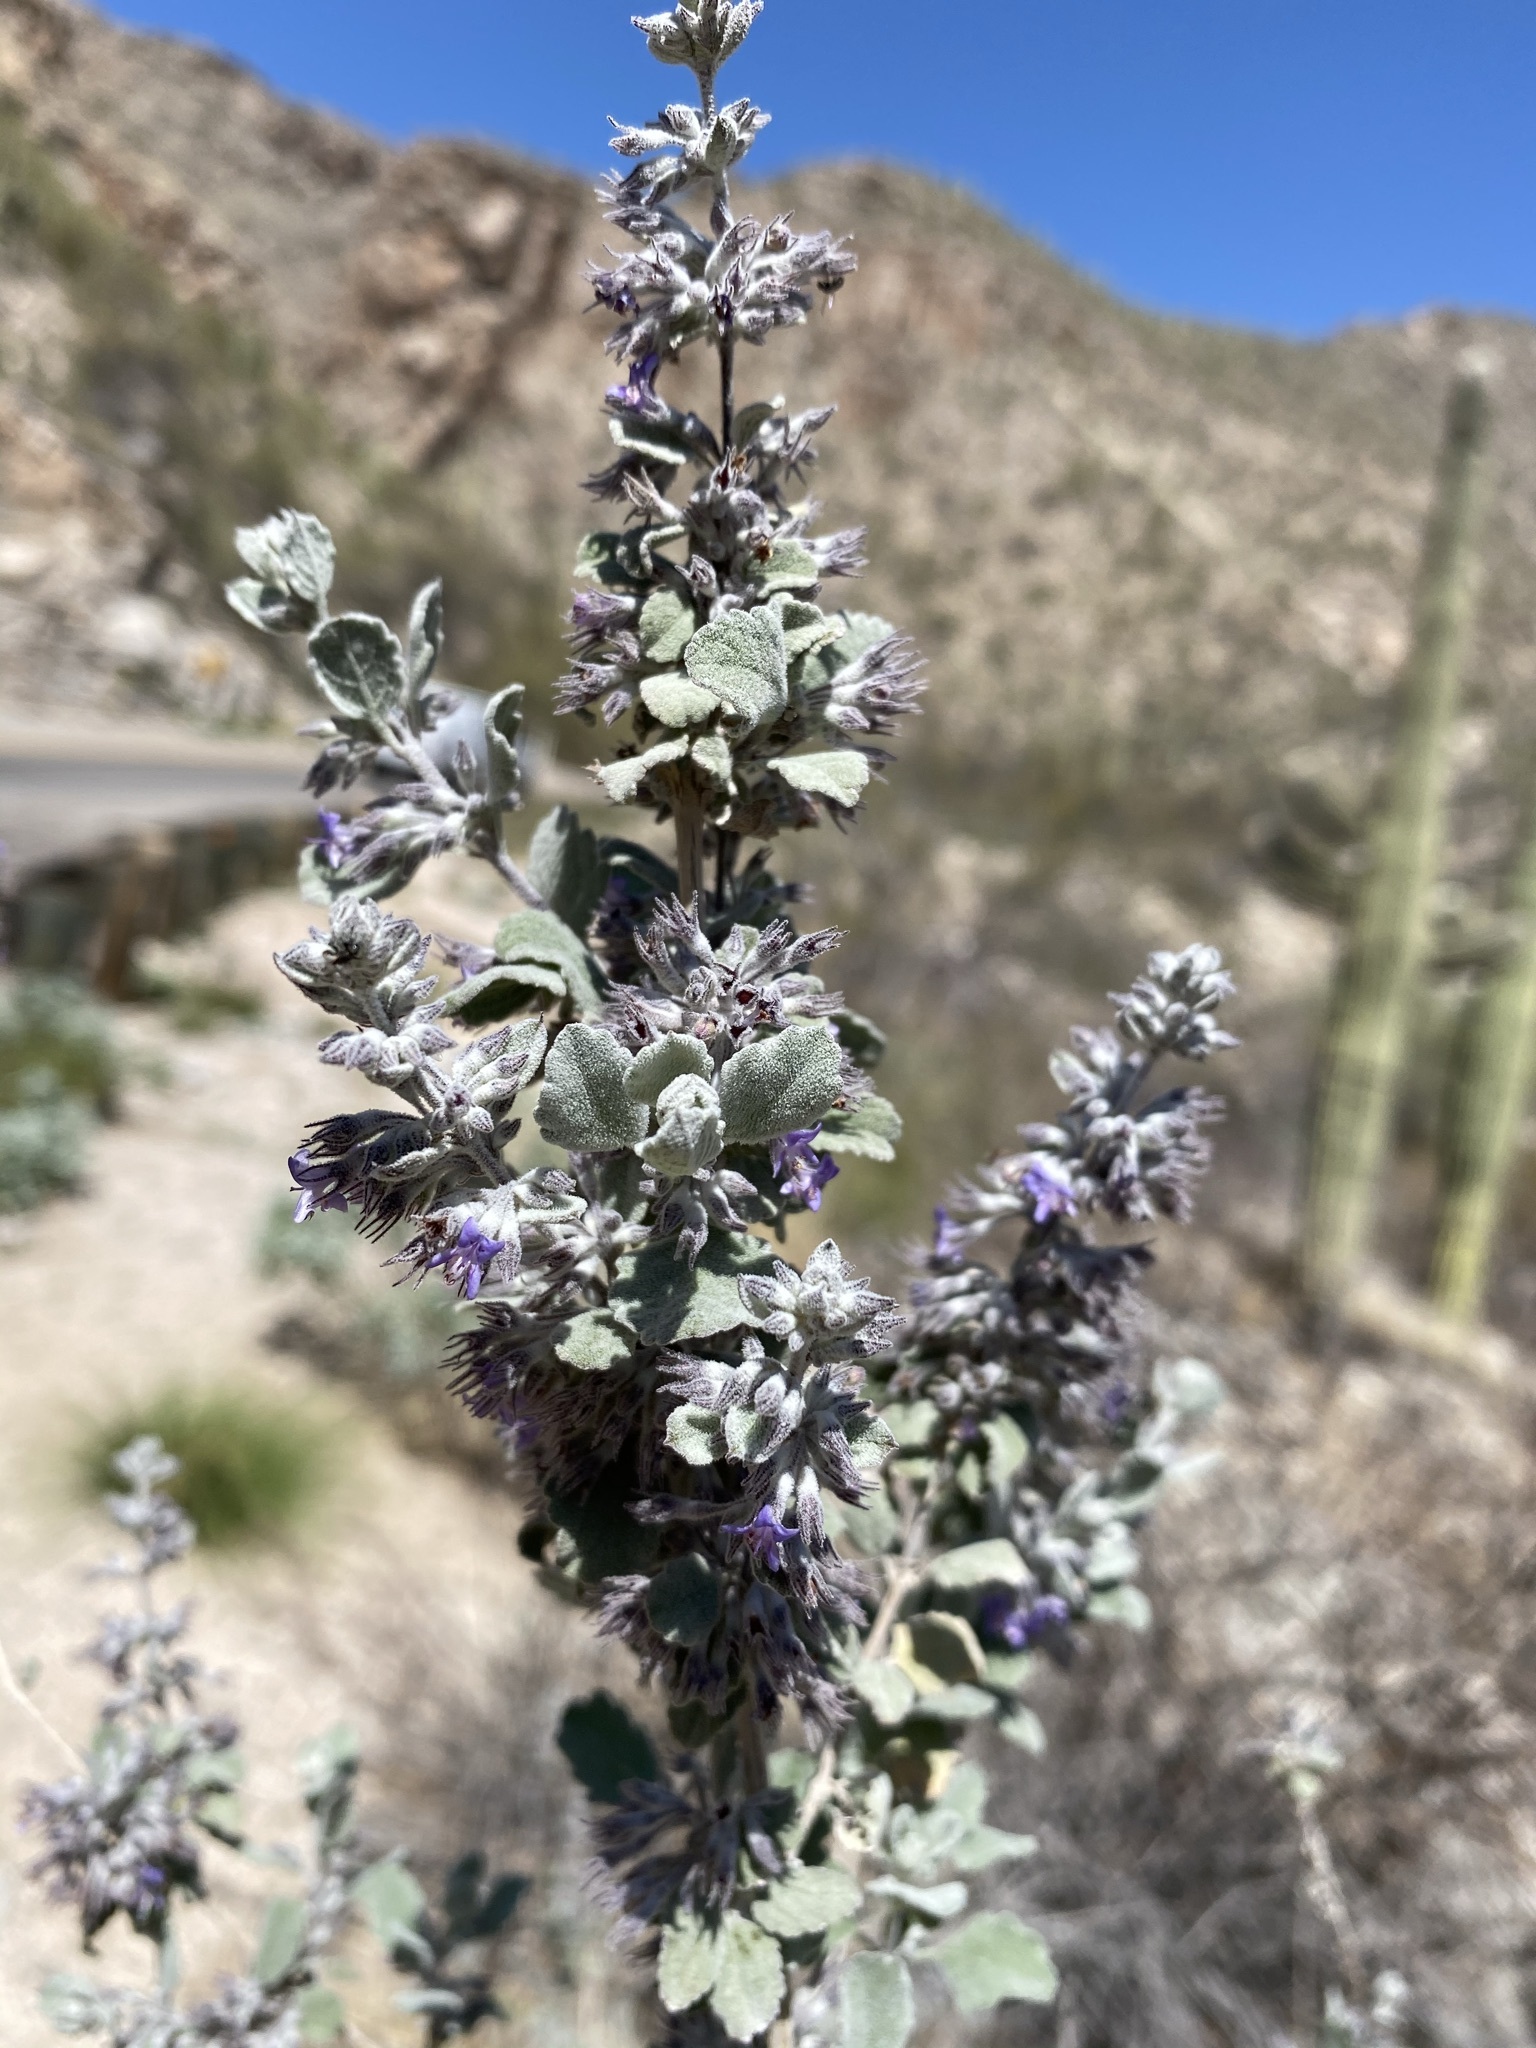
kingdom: Plantae
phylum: Tracheophyta
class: Magnoliopsida
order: Lamiales
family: Lamiaceae
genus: Condea
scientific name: Condea emoryi
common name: Chia
